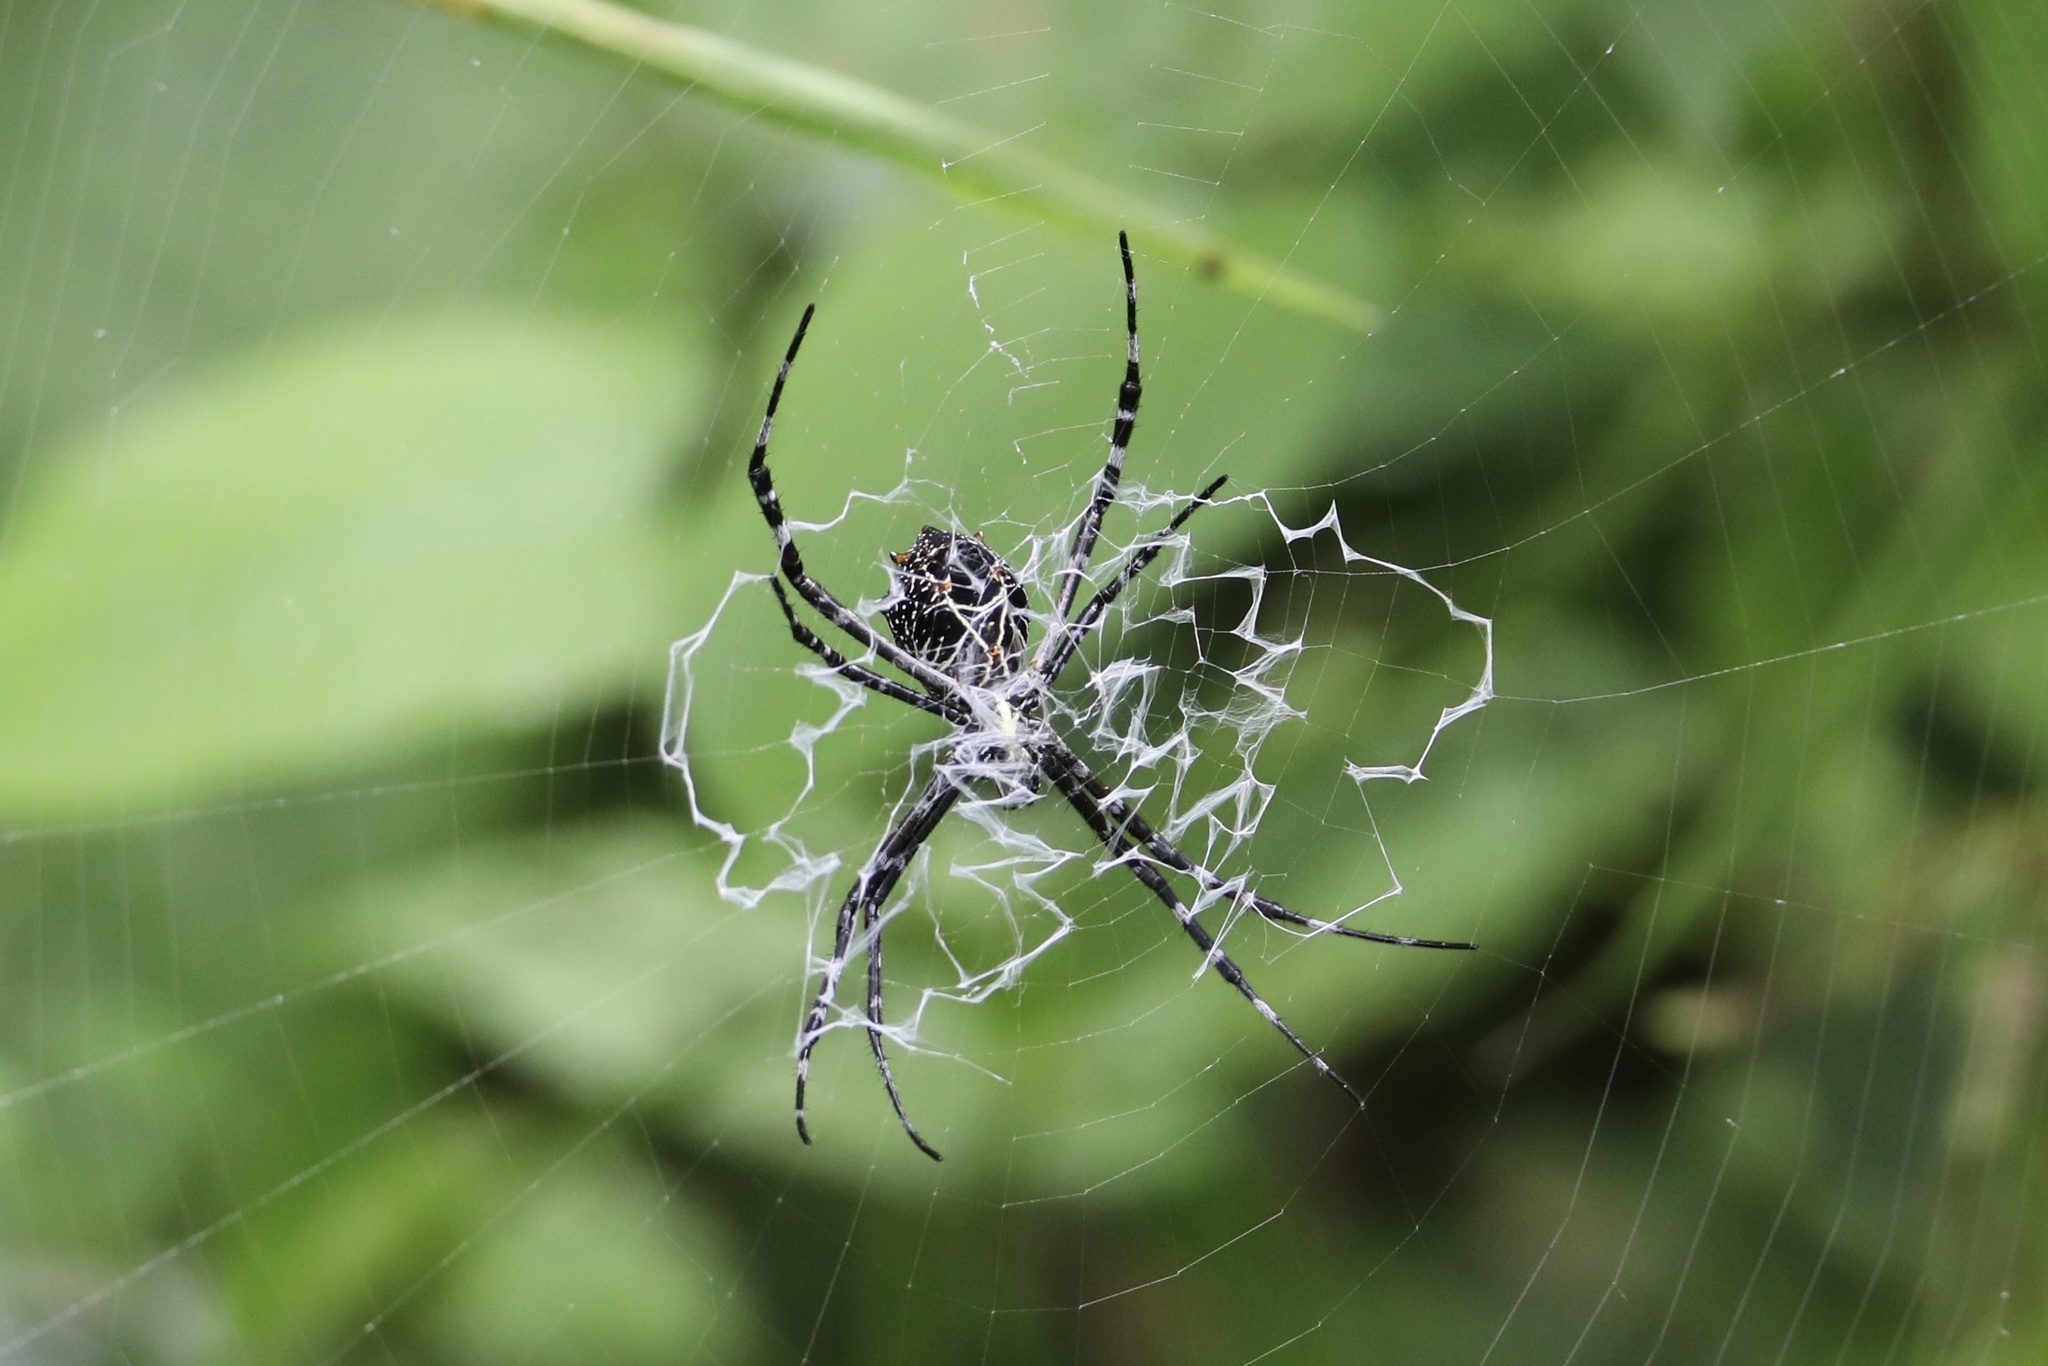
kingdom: Animalia
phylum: Arthropoda
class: Arachnida
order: Araneae
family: Araneidae
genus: Argiope
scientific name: Argiope submaronica
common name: Orb weavers
